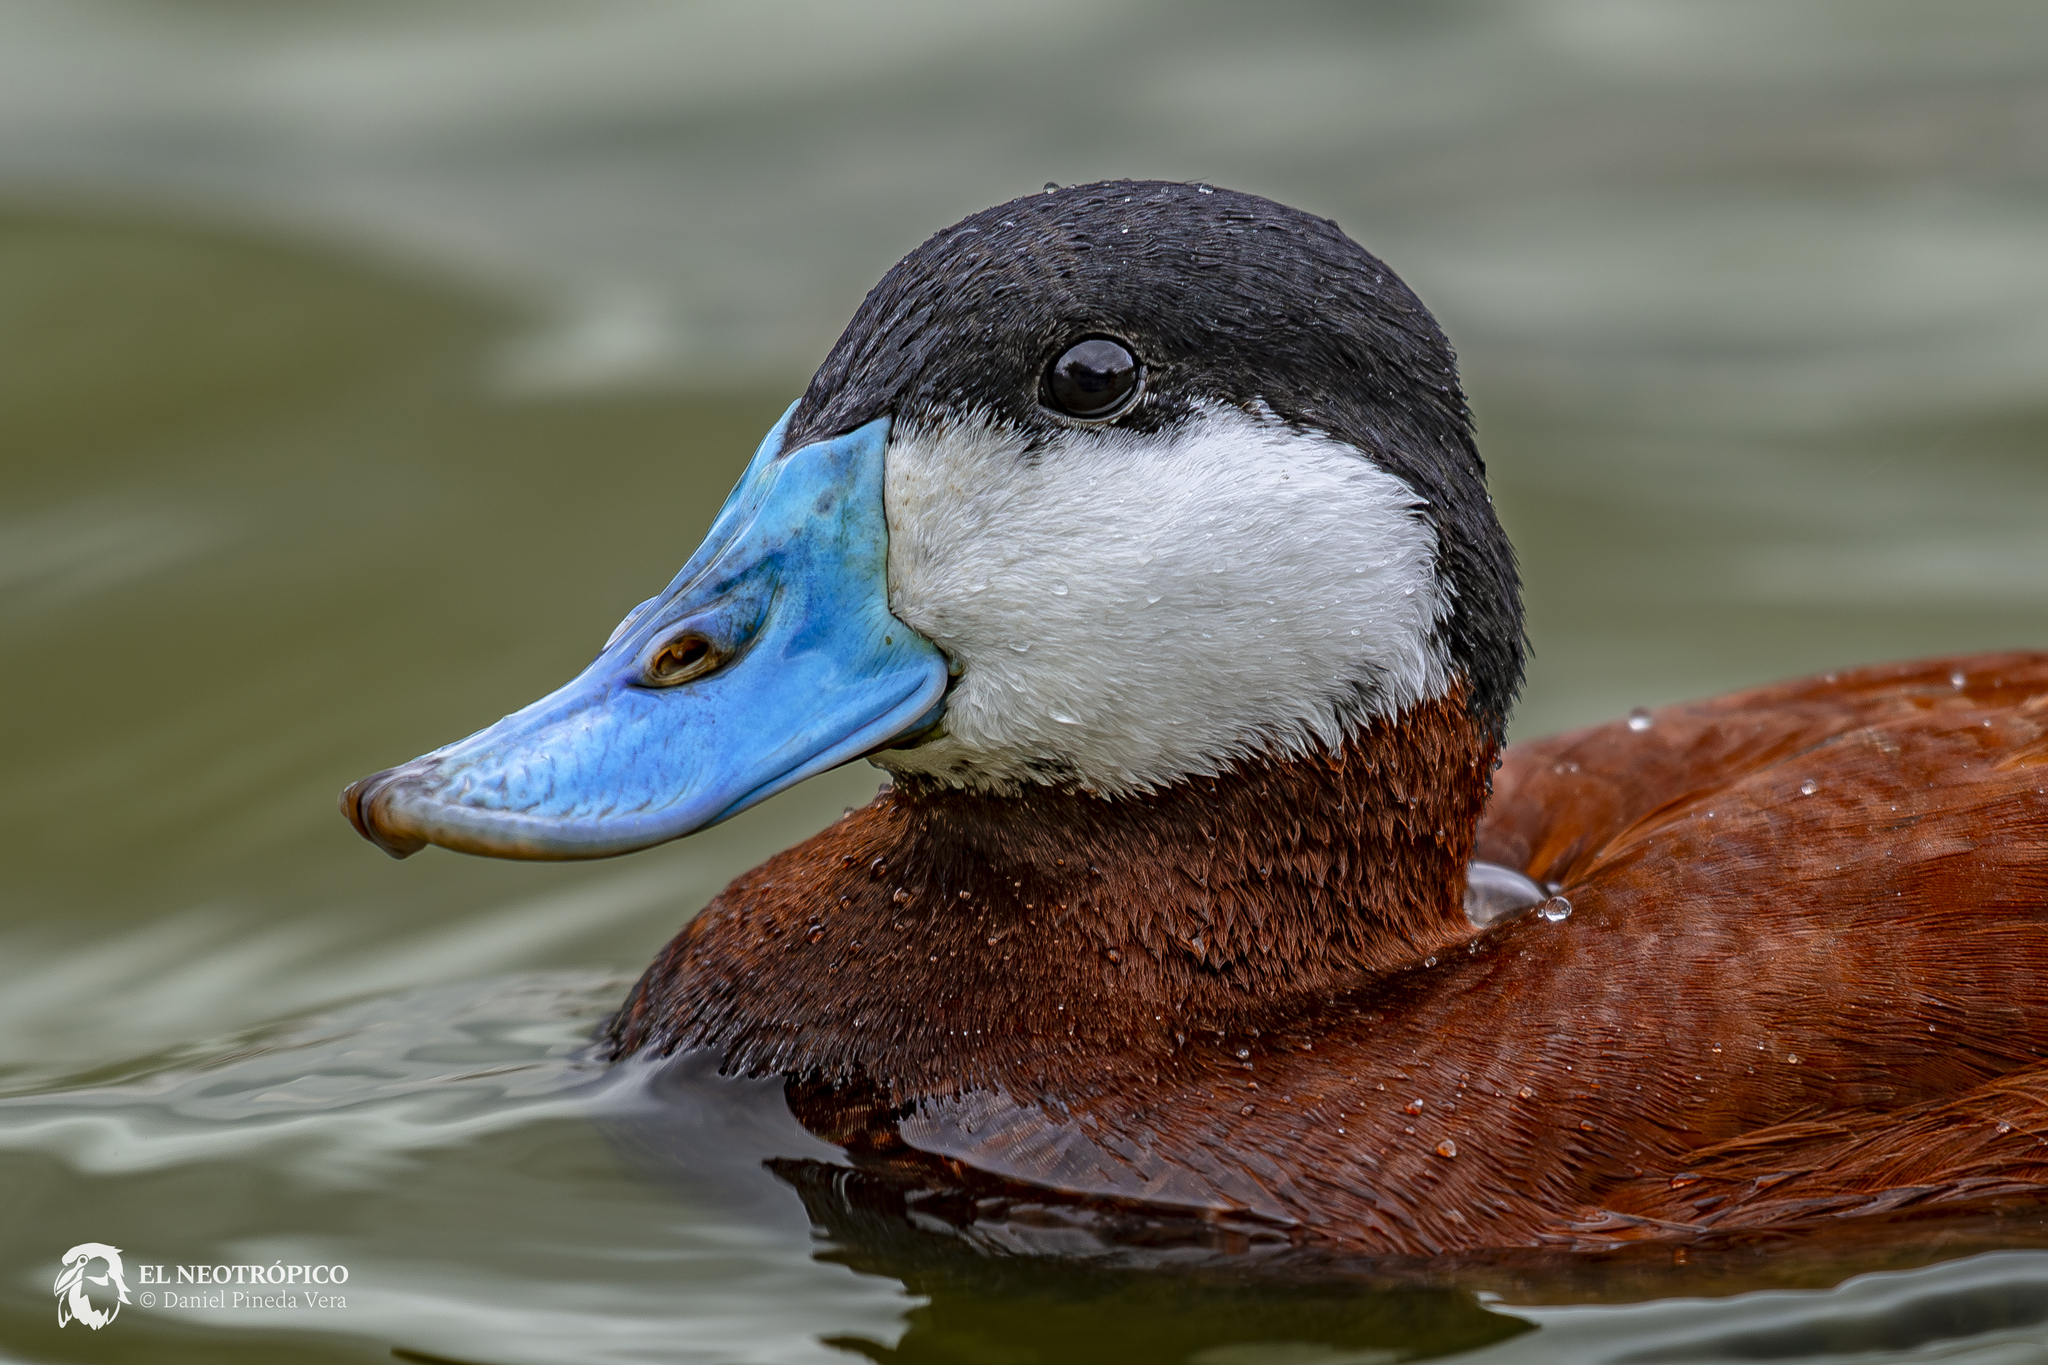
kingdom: Animalia
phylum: Chordata
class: Aves
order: Anseriformes
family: Anatidae
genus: Oxyura
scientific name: Oxyura jamaicensis
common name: Ruddy duck
